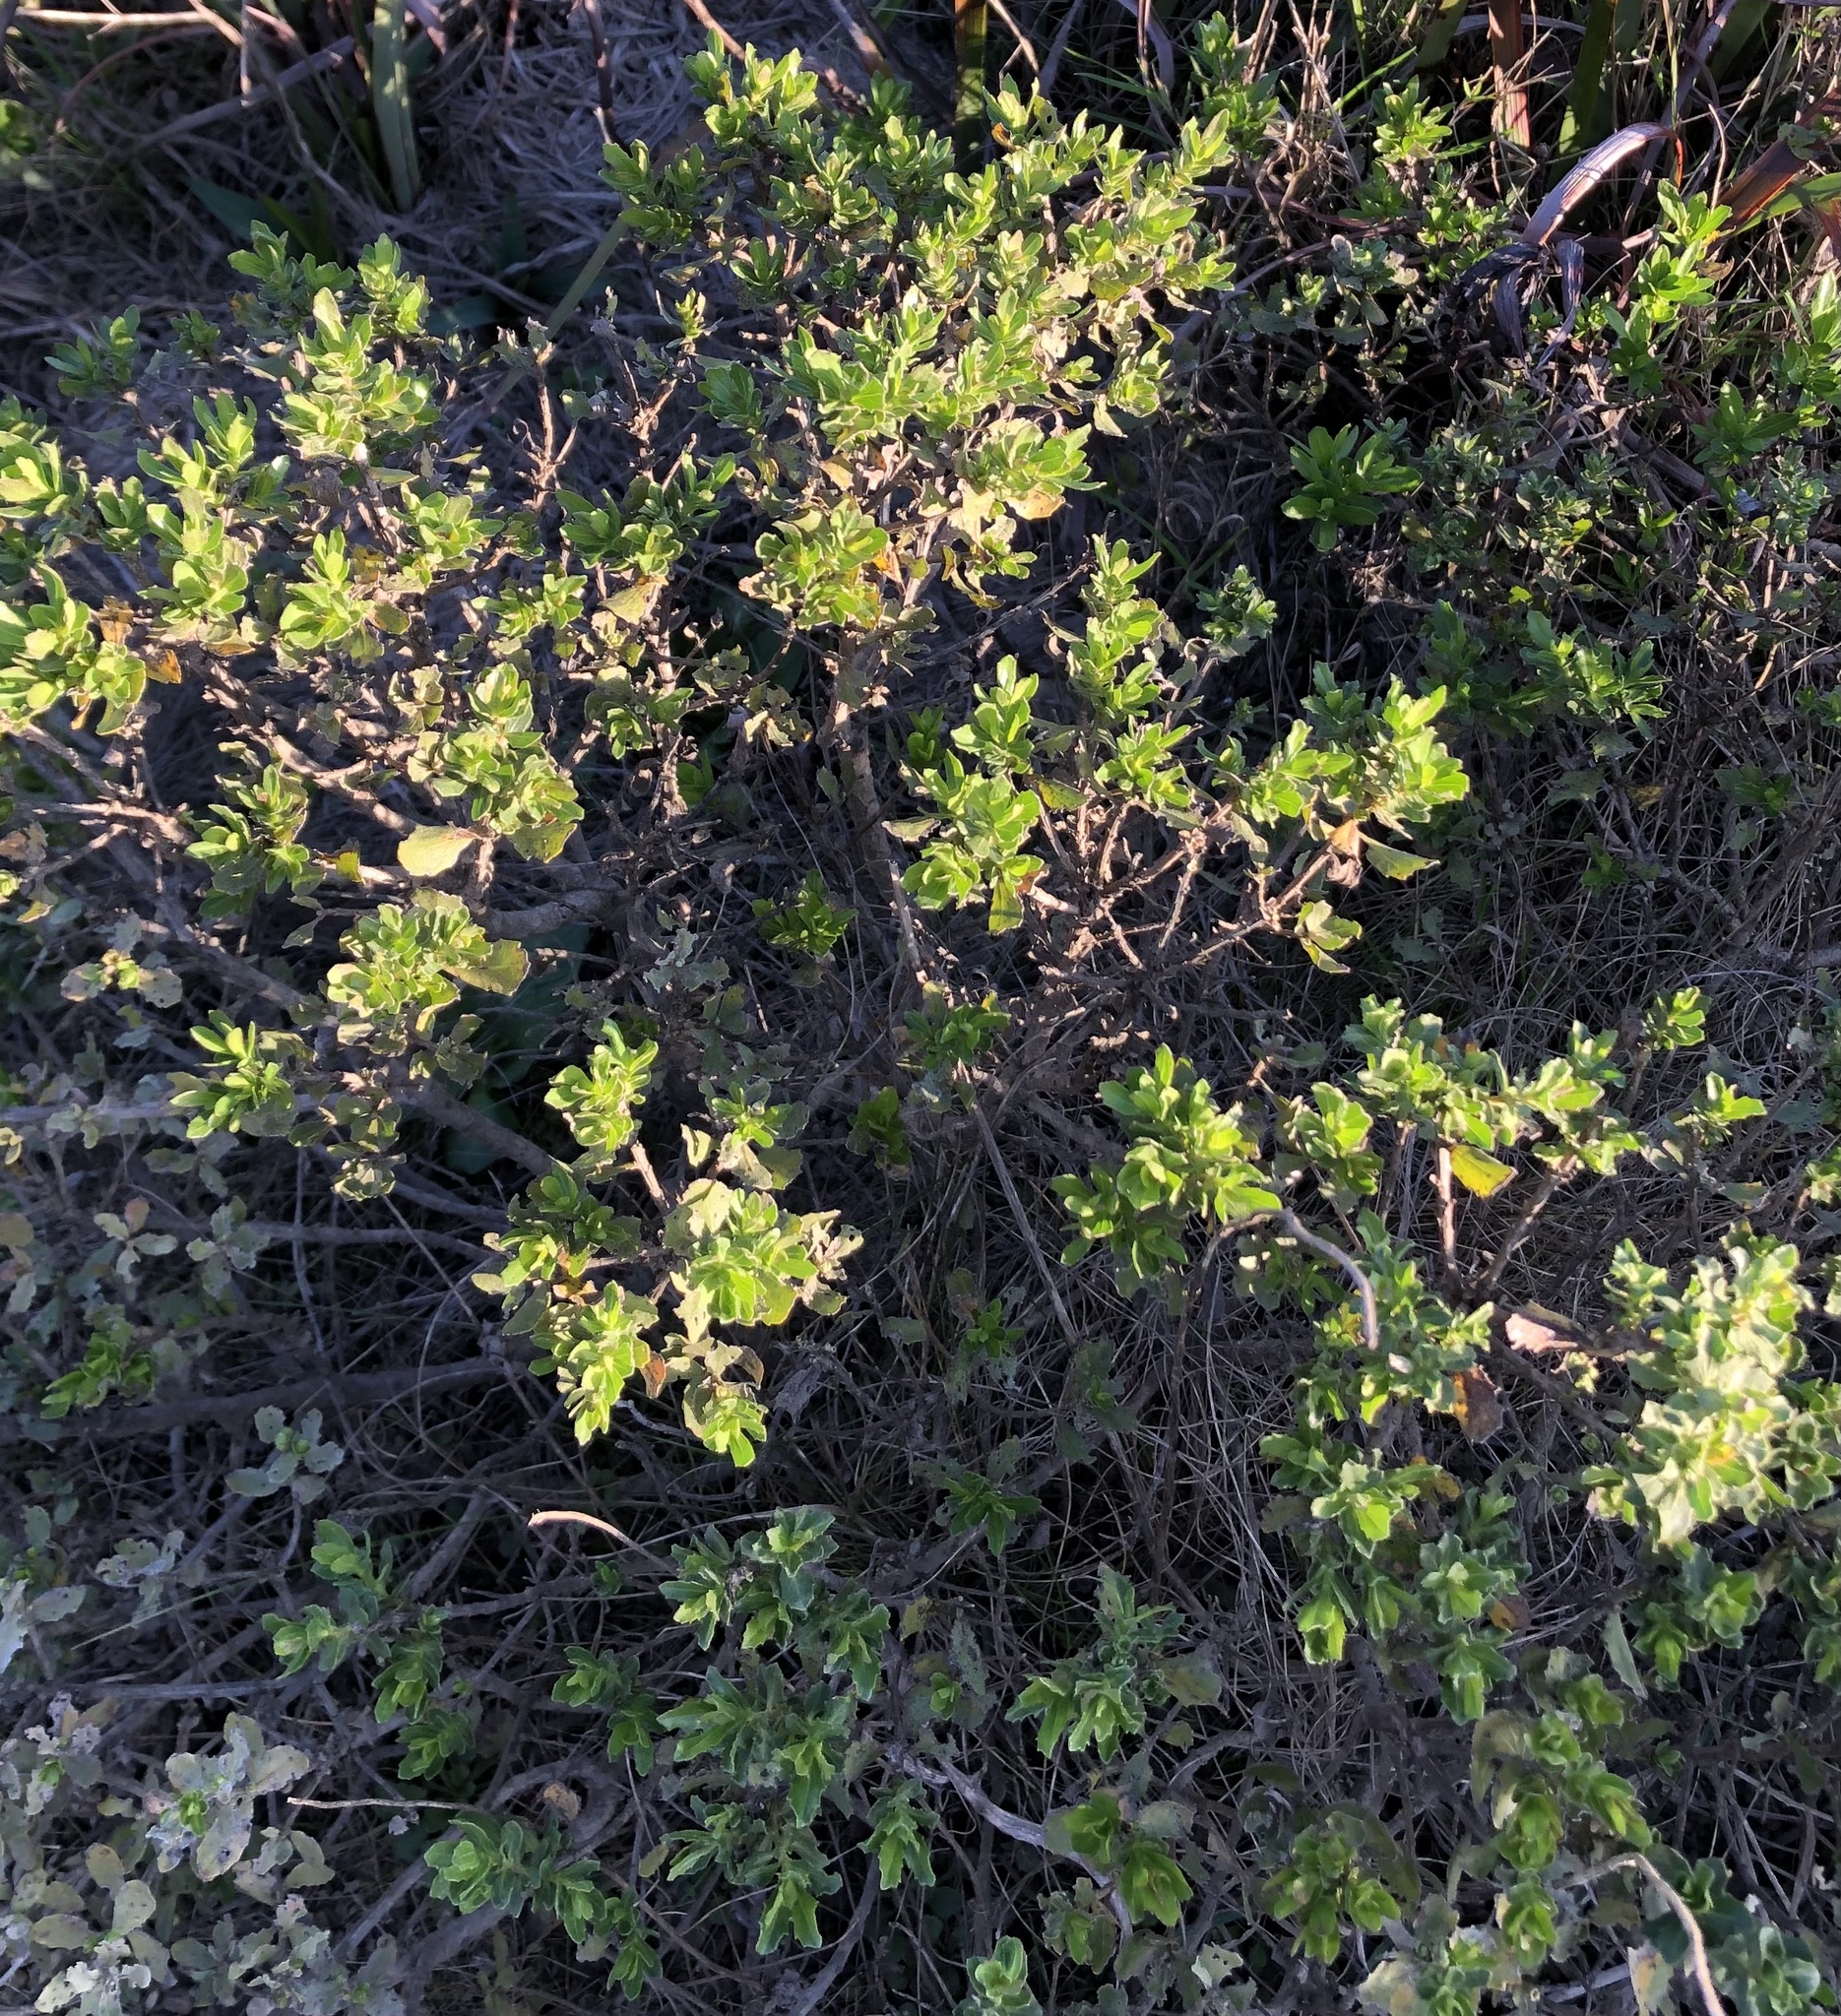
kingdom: Plantae
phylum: Tracheophyta
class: Magnoliopsida
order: Asterales
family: Asteraceae
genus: Baccharis
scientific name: Baccharis pilularis
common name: Coyotebrush
